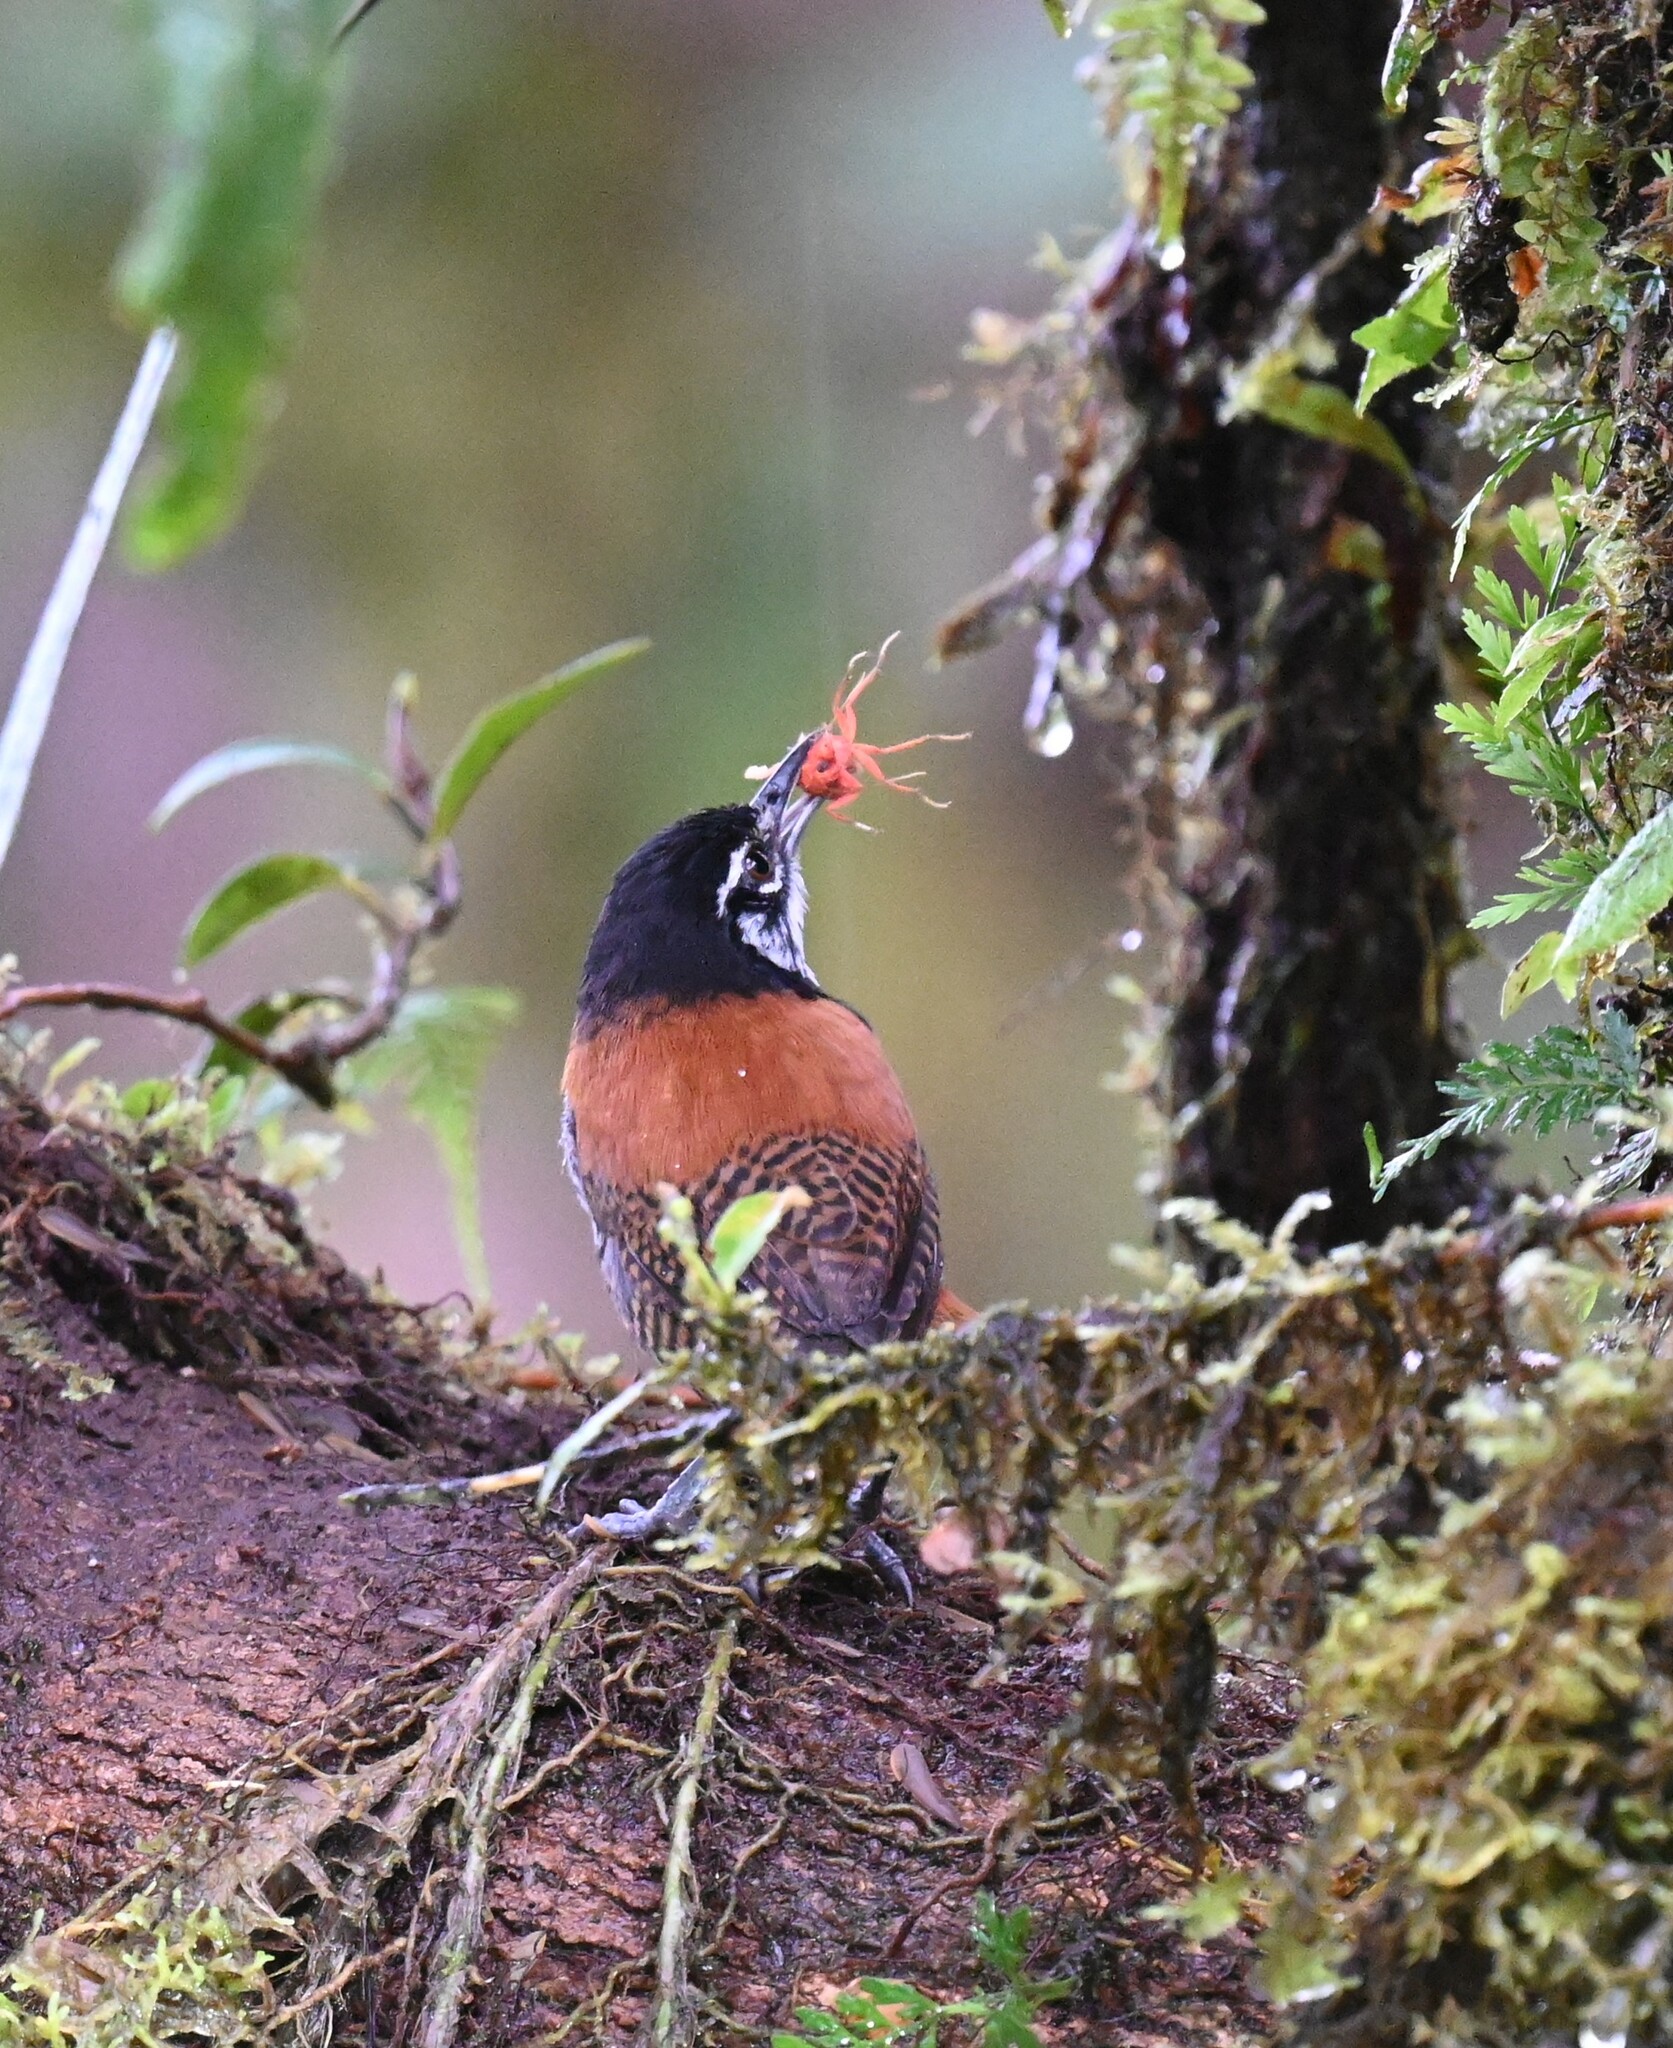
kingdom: Animalia
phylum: Chordata
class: Aves
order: Passeriformes
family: Troglodytidae
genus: Cantorchilus
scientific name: Cantorchilus nigricapillus
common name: Bay wren
